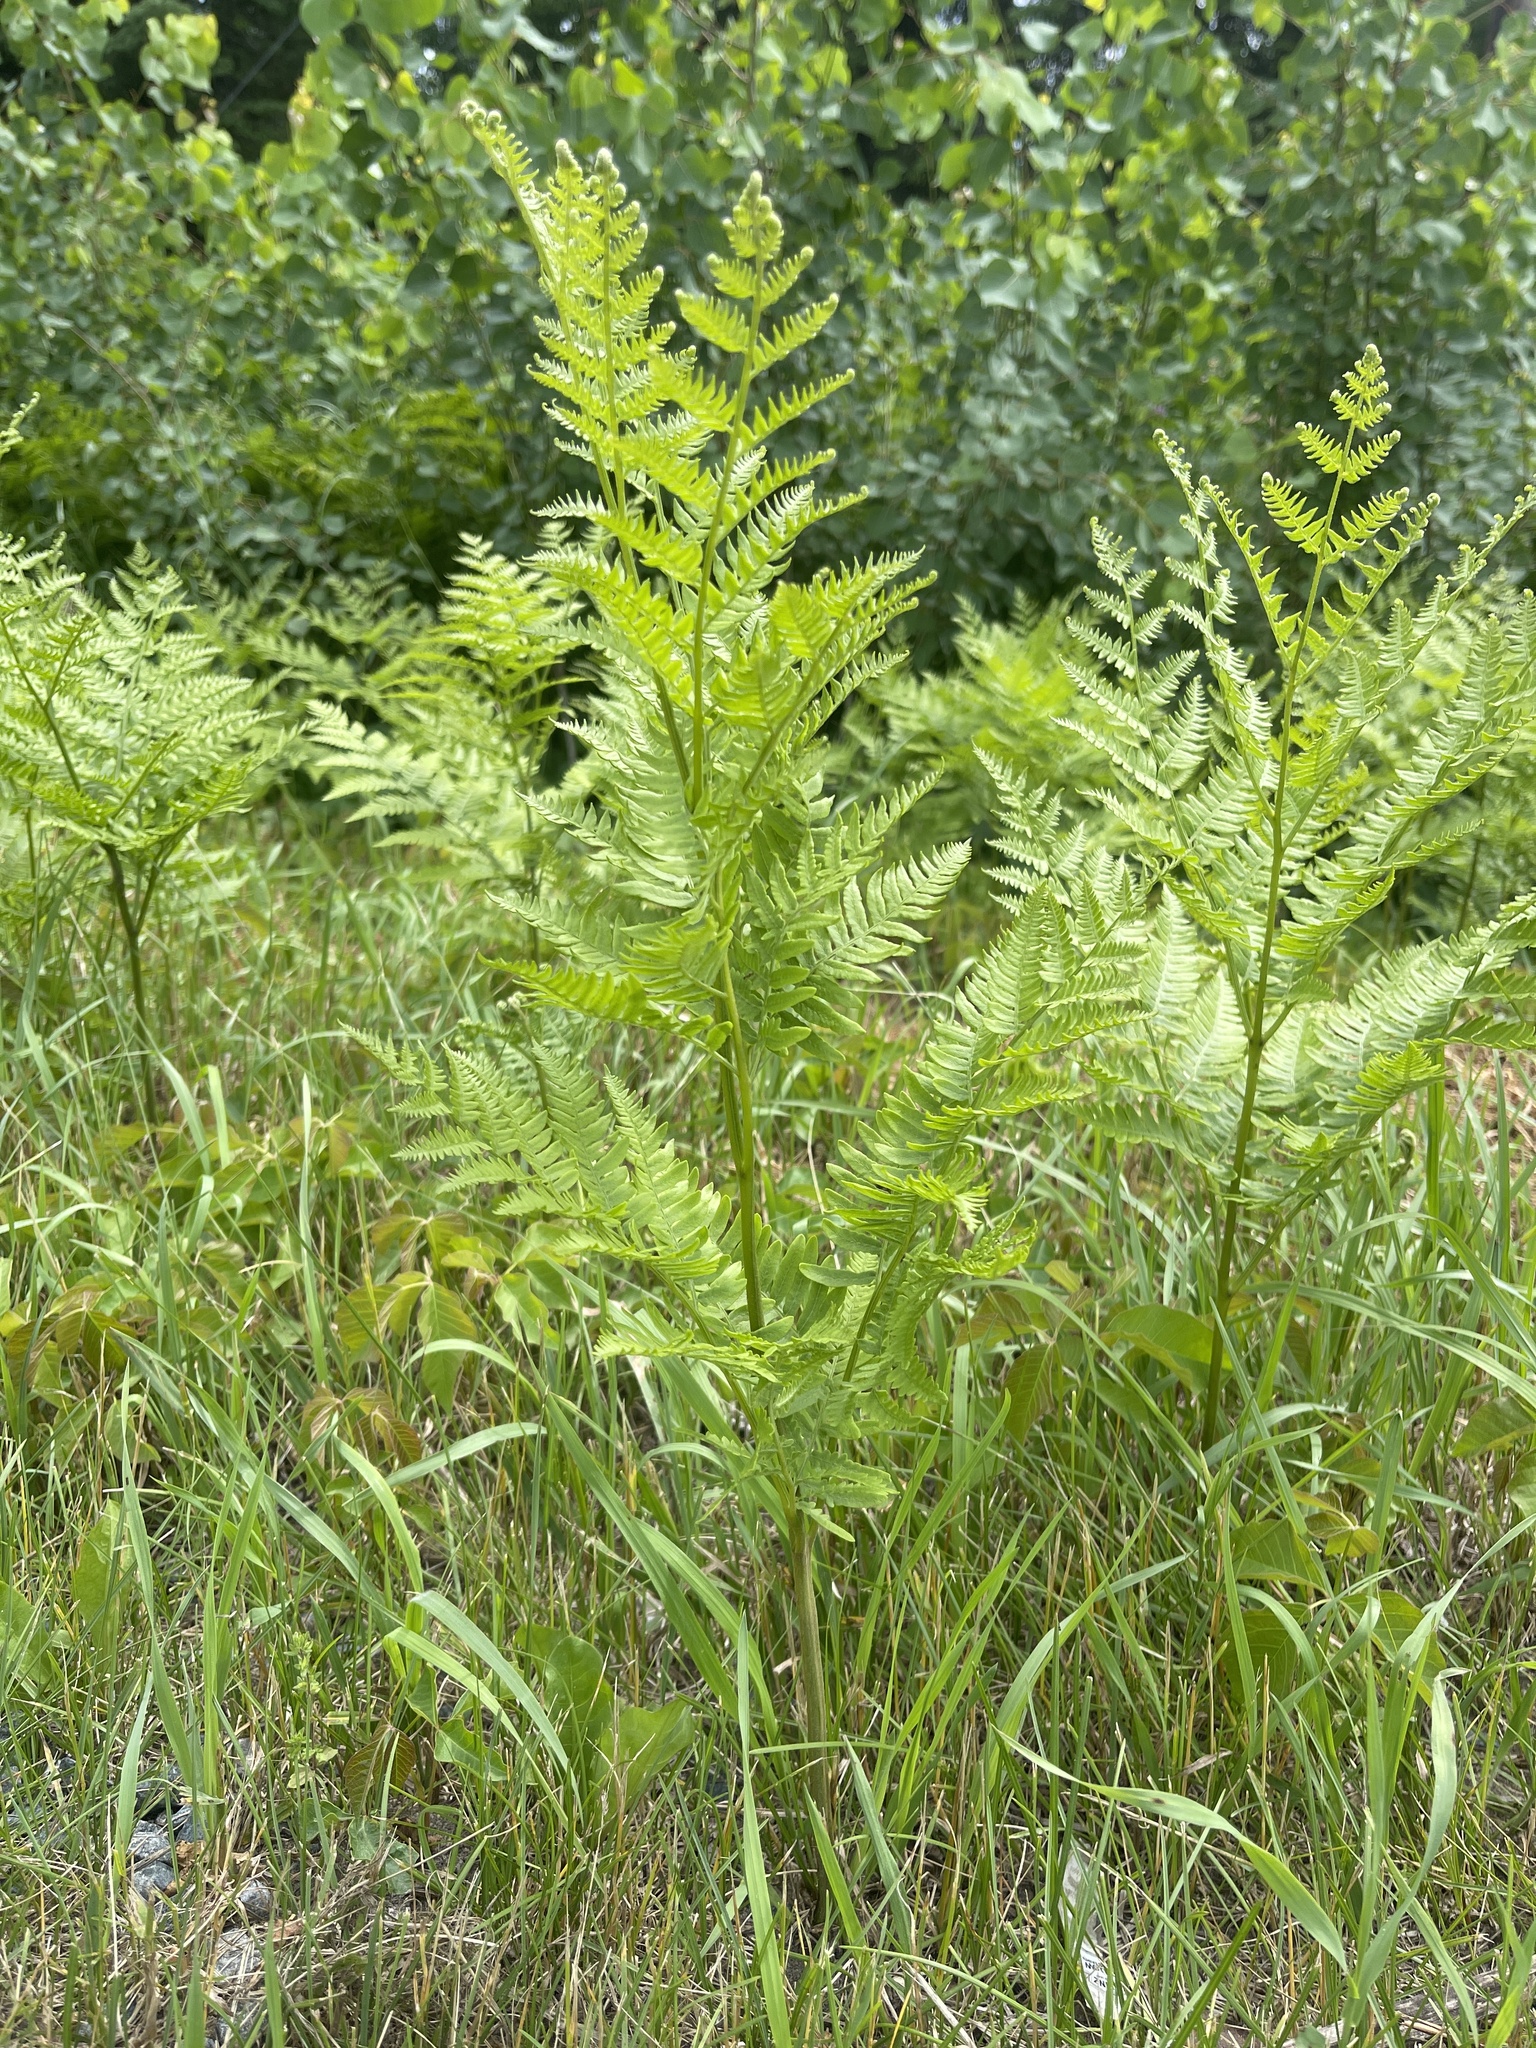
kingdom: Plantae
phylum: Tracheophyta
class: Polypodiopsida
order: Polypodiales
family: Dennstaedtiaceae
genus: Pteridium
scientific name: Pteridium aquilinum
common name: Bracken
